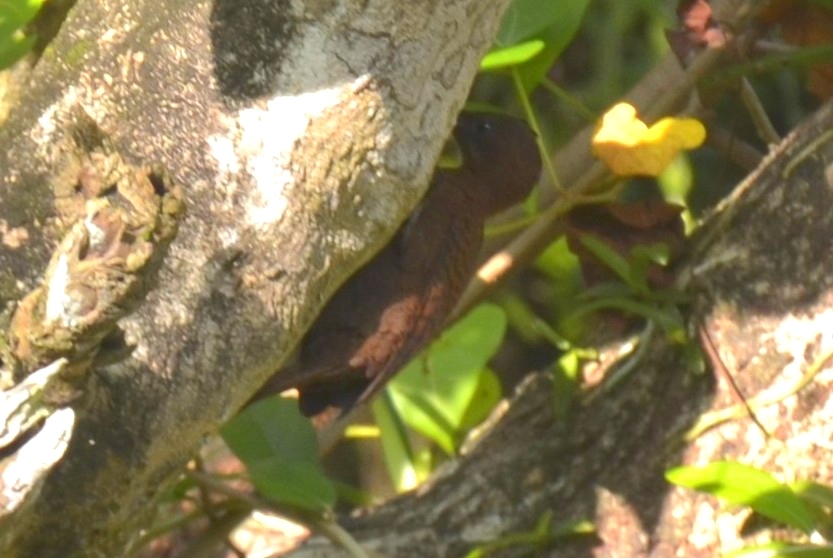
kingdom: Animalia
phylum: Chordata
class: Aves
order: Piciformes
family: Picidae
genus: Micropternus
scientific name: Micropternus brachyurus
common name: Rufous woodpecker
